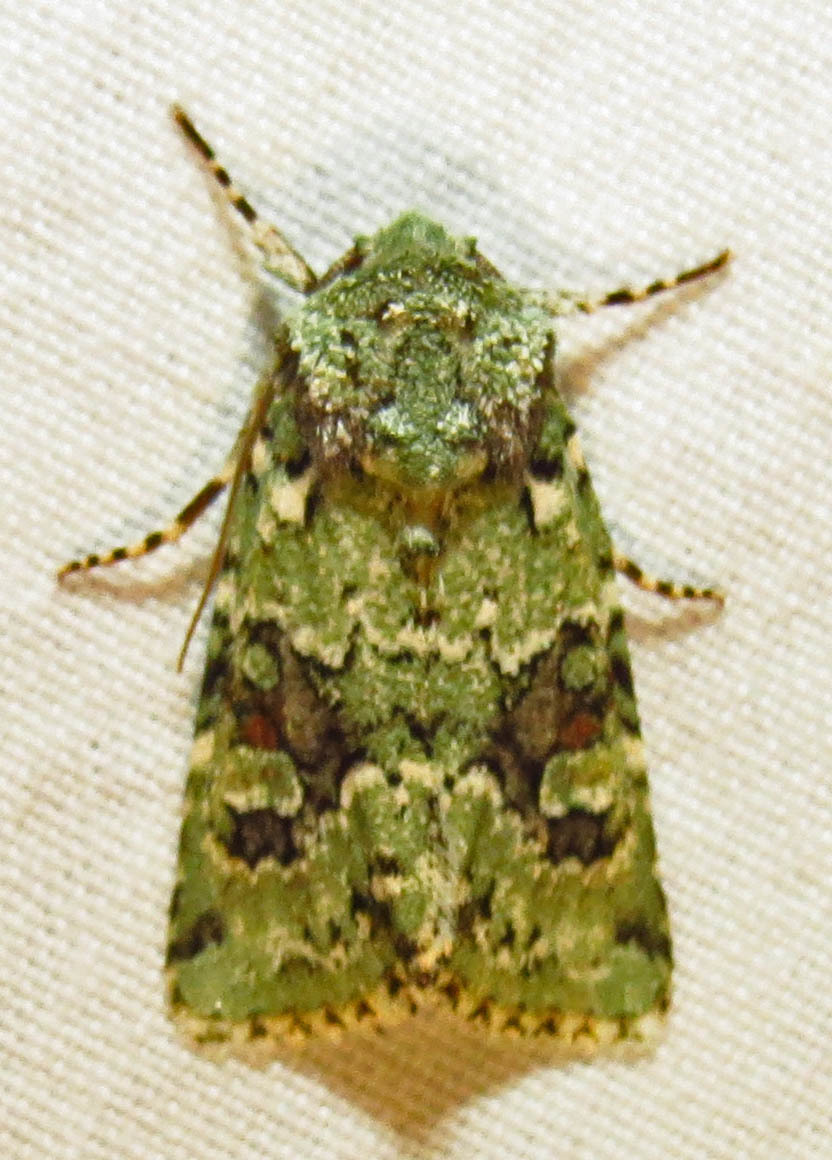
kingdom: Animalia
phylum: Arthropoda
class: Insecta
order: Lepidoptera
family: Noctuidae
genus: Lacinipolia
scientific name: Lacinipolia laudabilis
